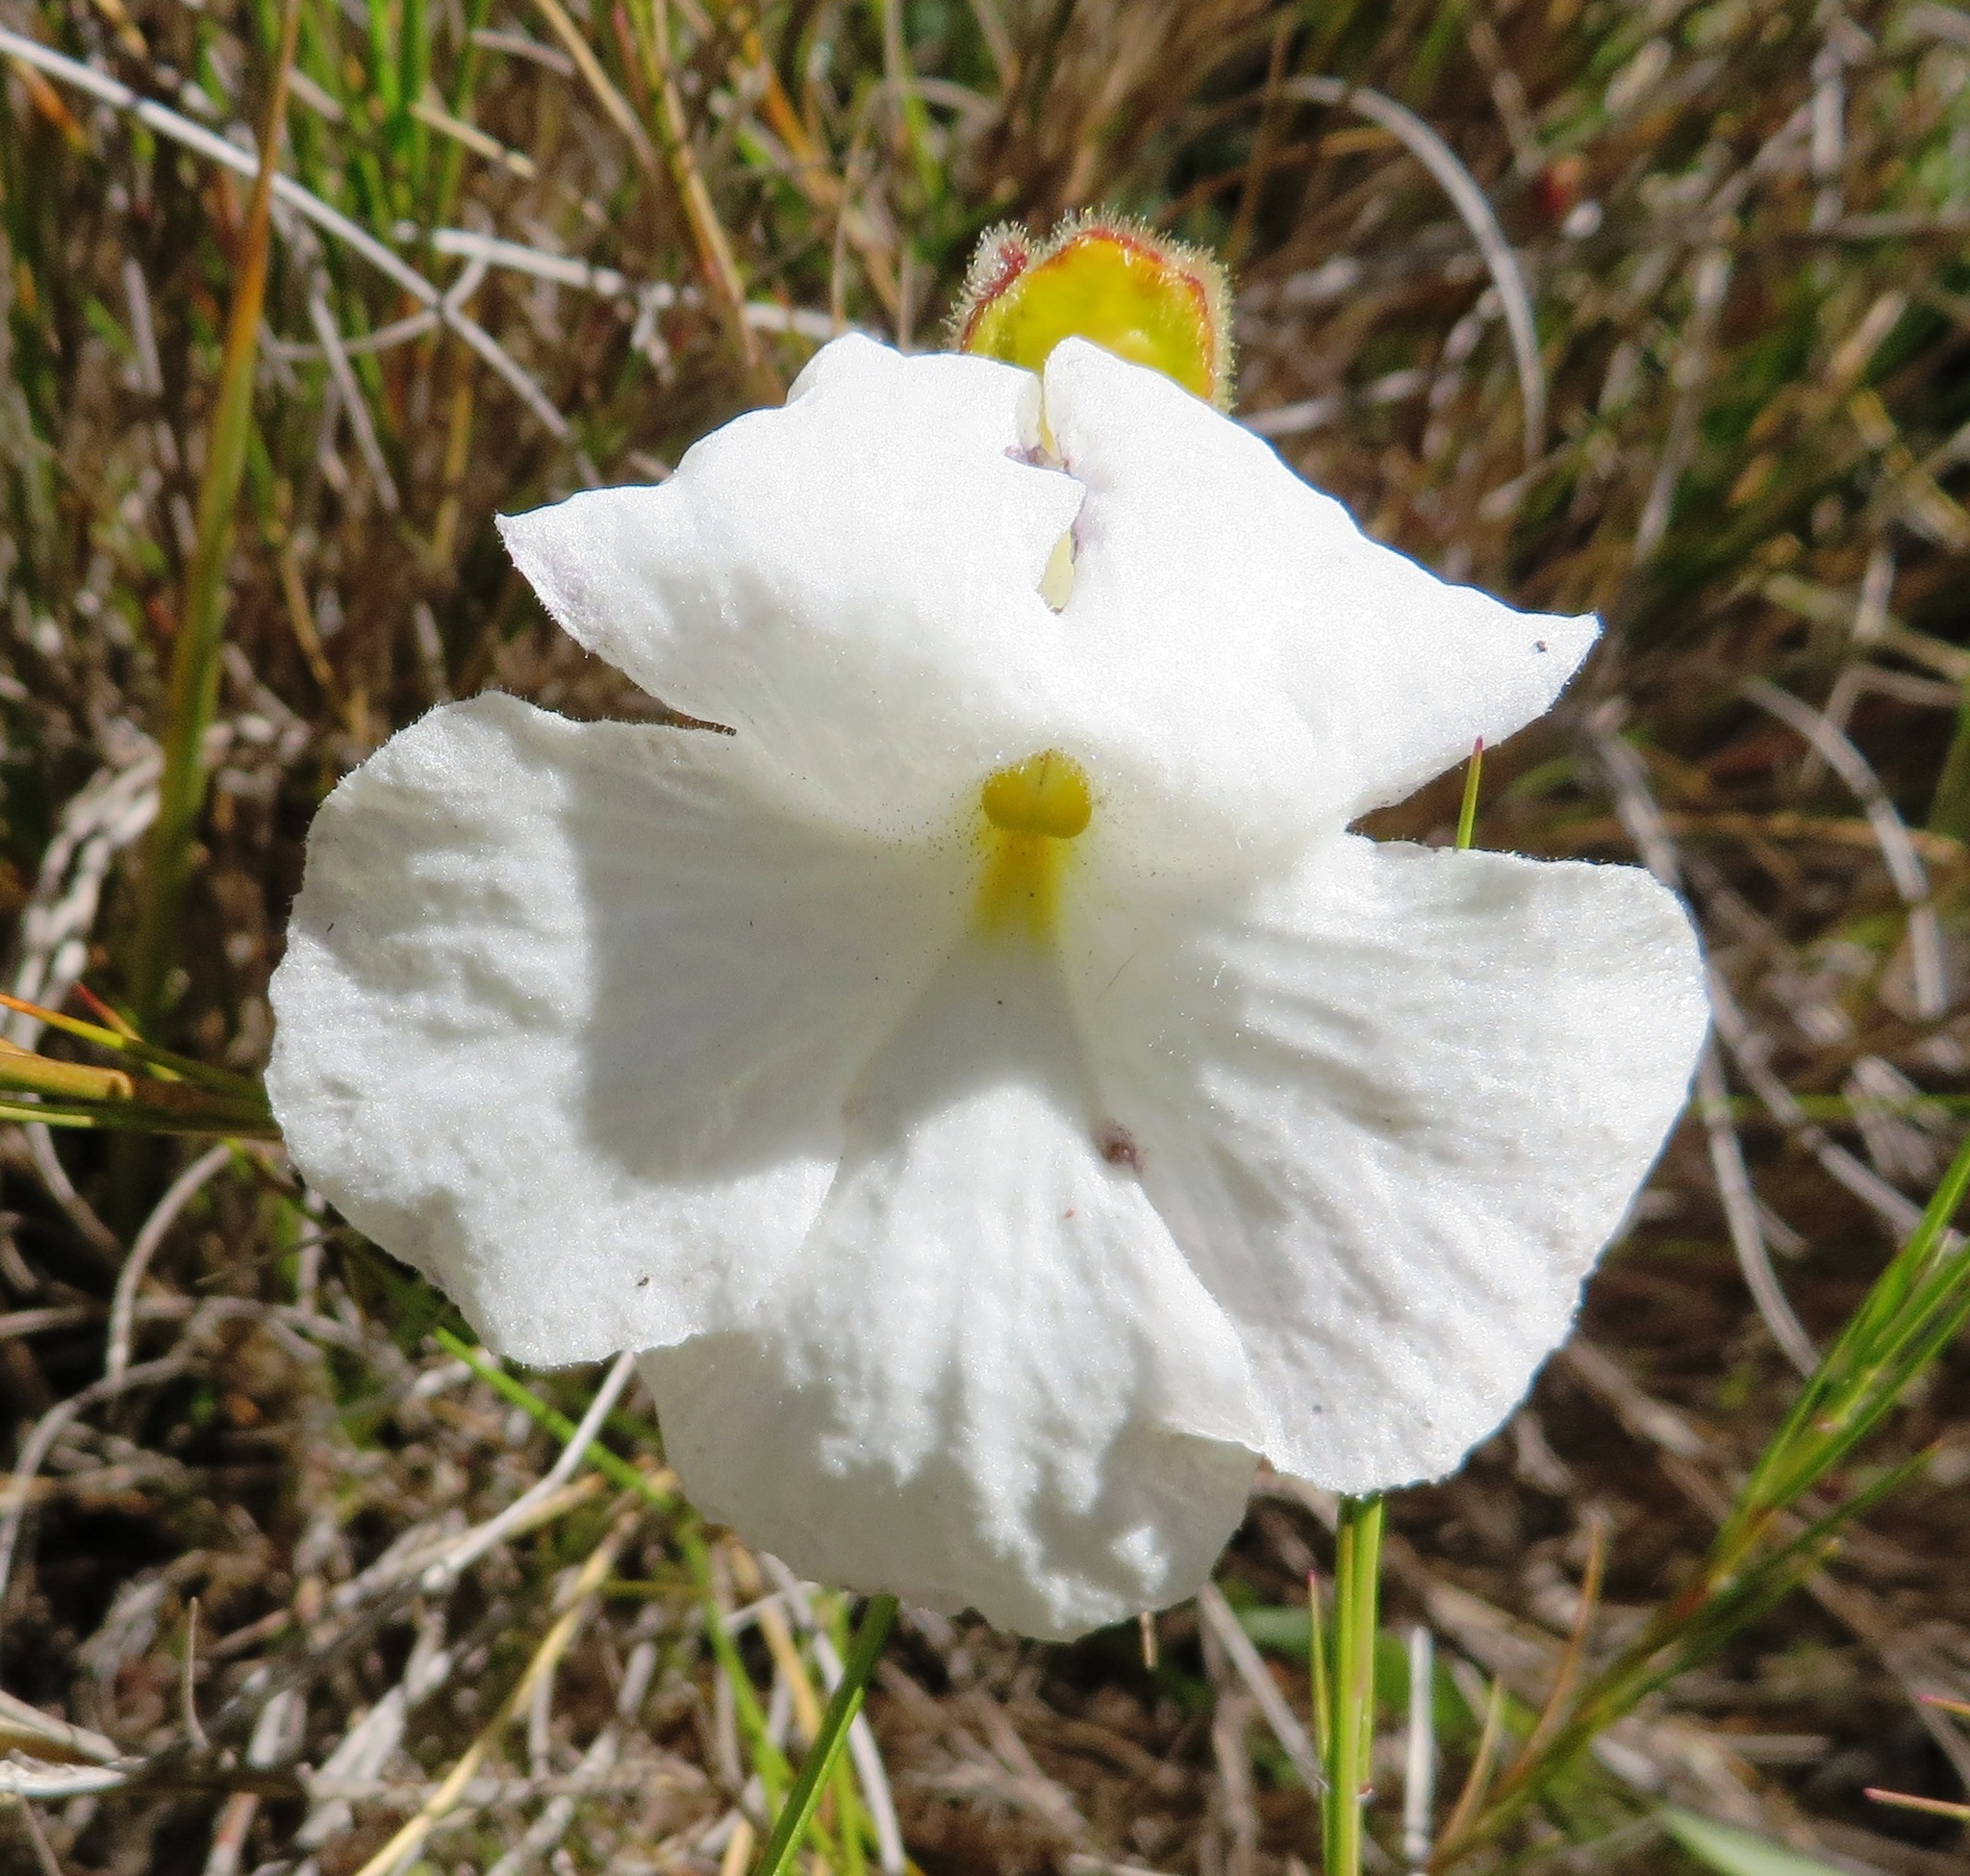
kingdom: Plantae
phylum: Tracheophyta
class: Magnoliopsida
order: Lamiales
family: Orobanchaceae
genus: Harveya
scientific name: Harveya capensis
